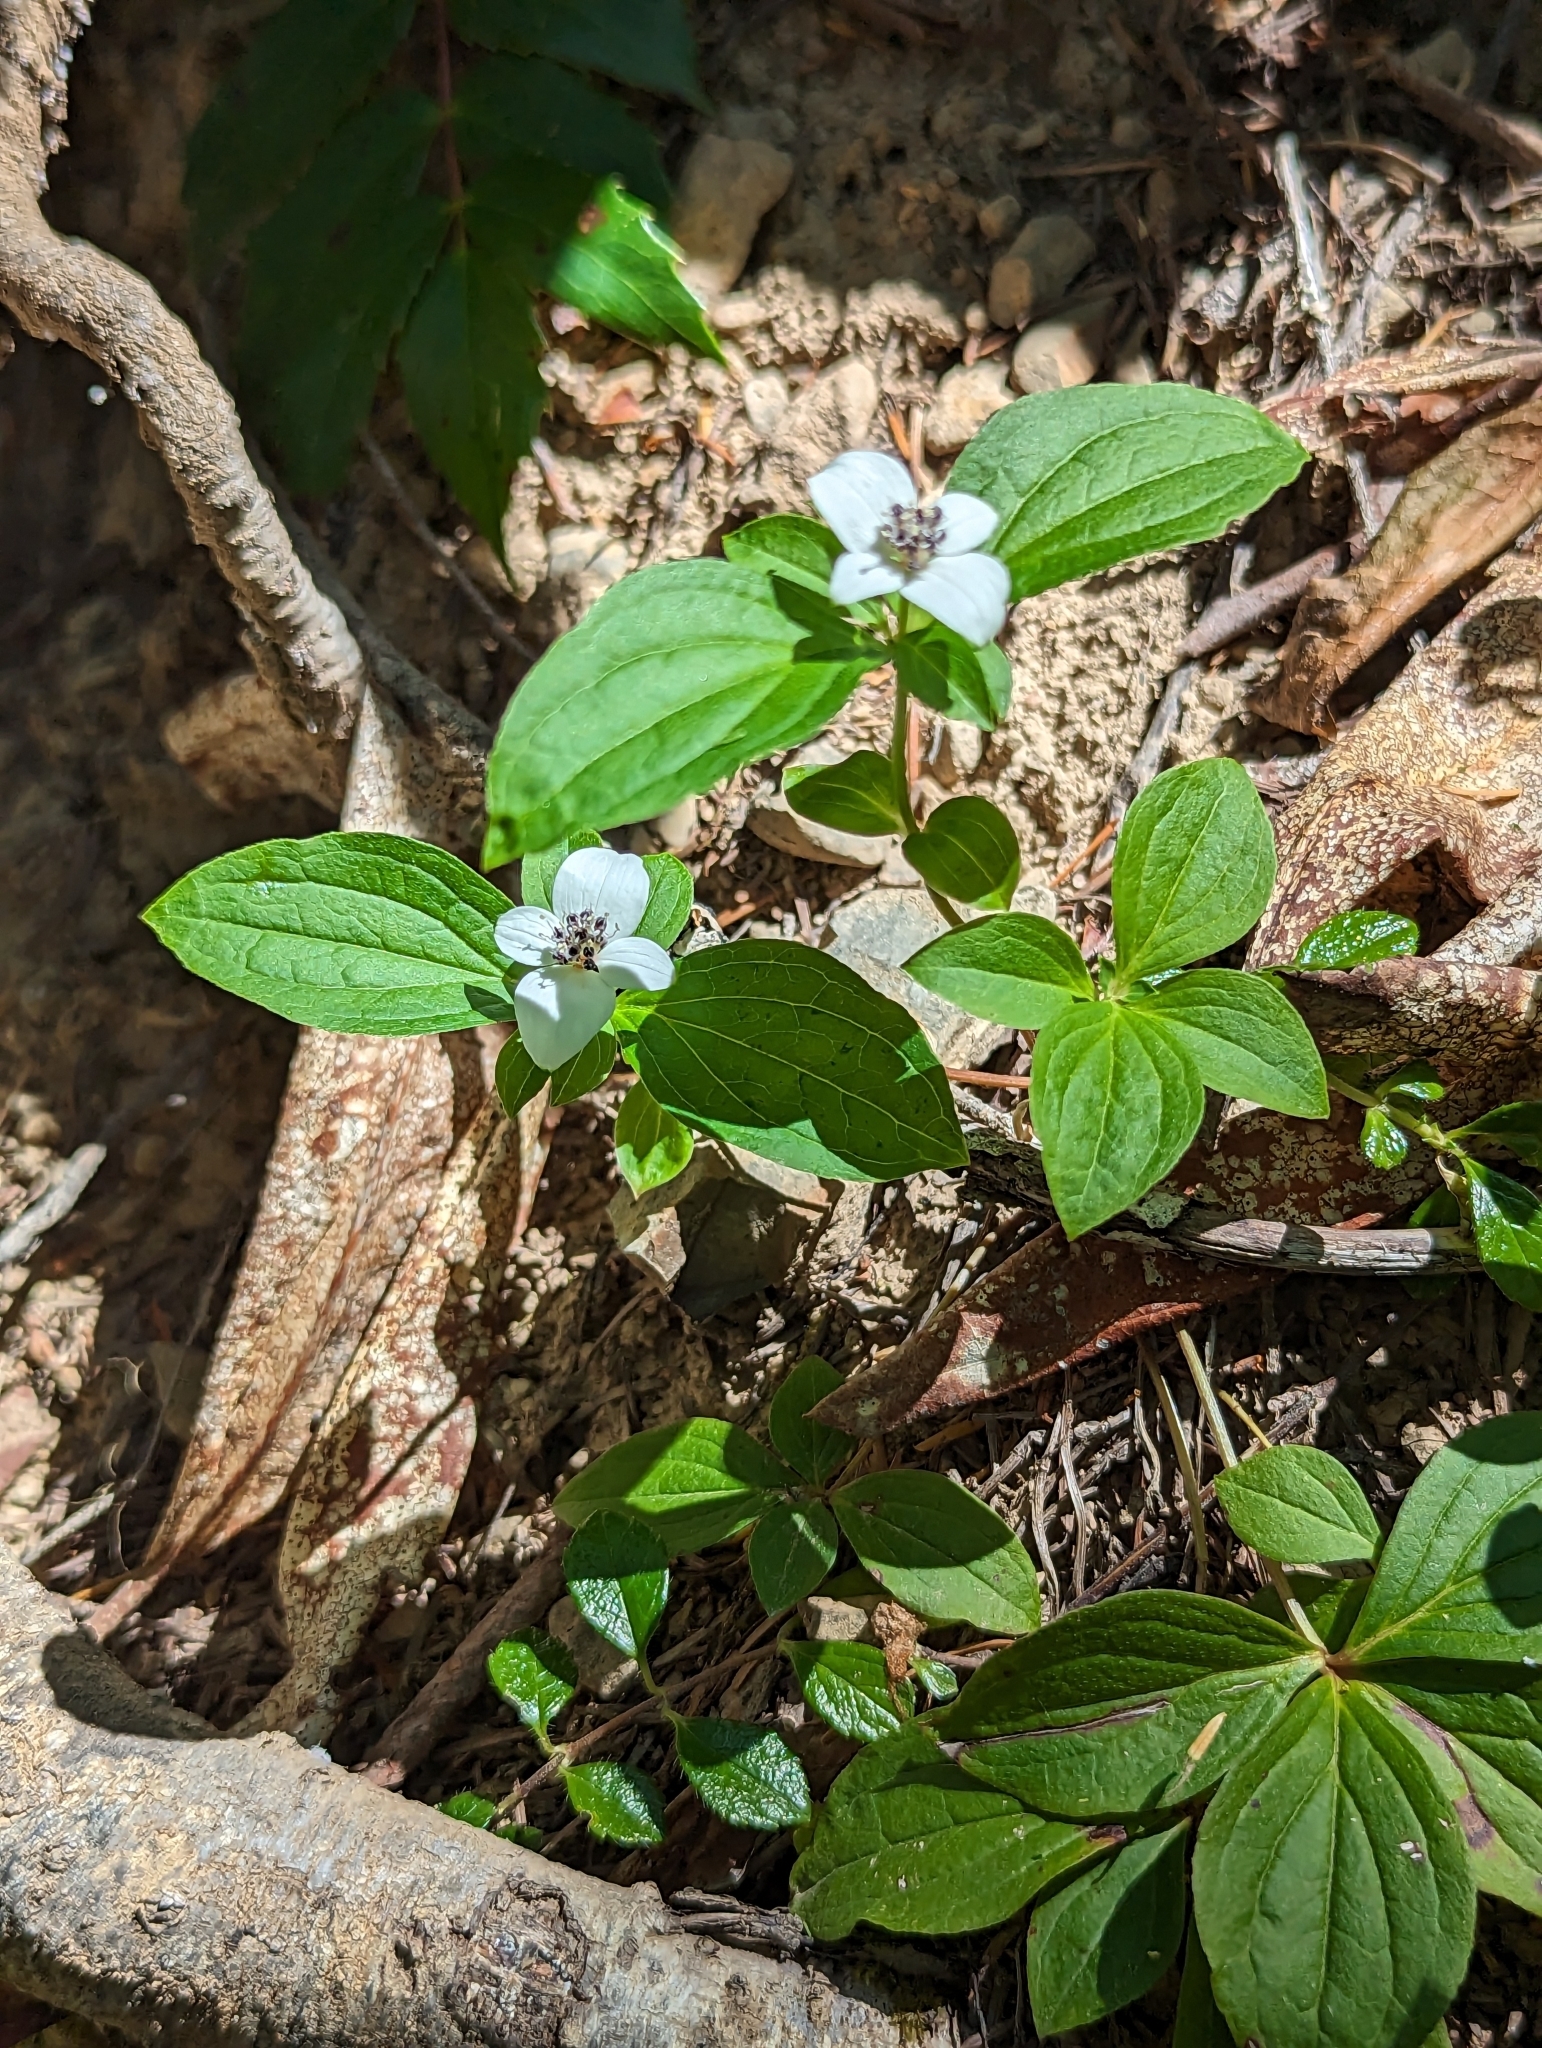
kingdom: Plantae
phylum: Tracheophyta
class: Magnoliopsida
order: Cornales
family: Cornaceae
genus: Cornus
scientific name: Cornus unalaschkensis
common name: Alaska bunchberry
